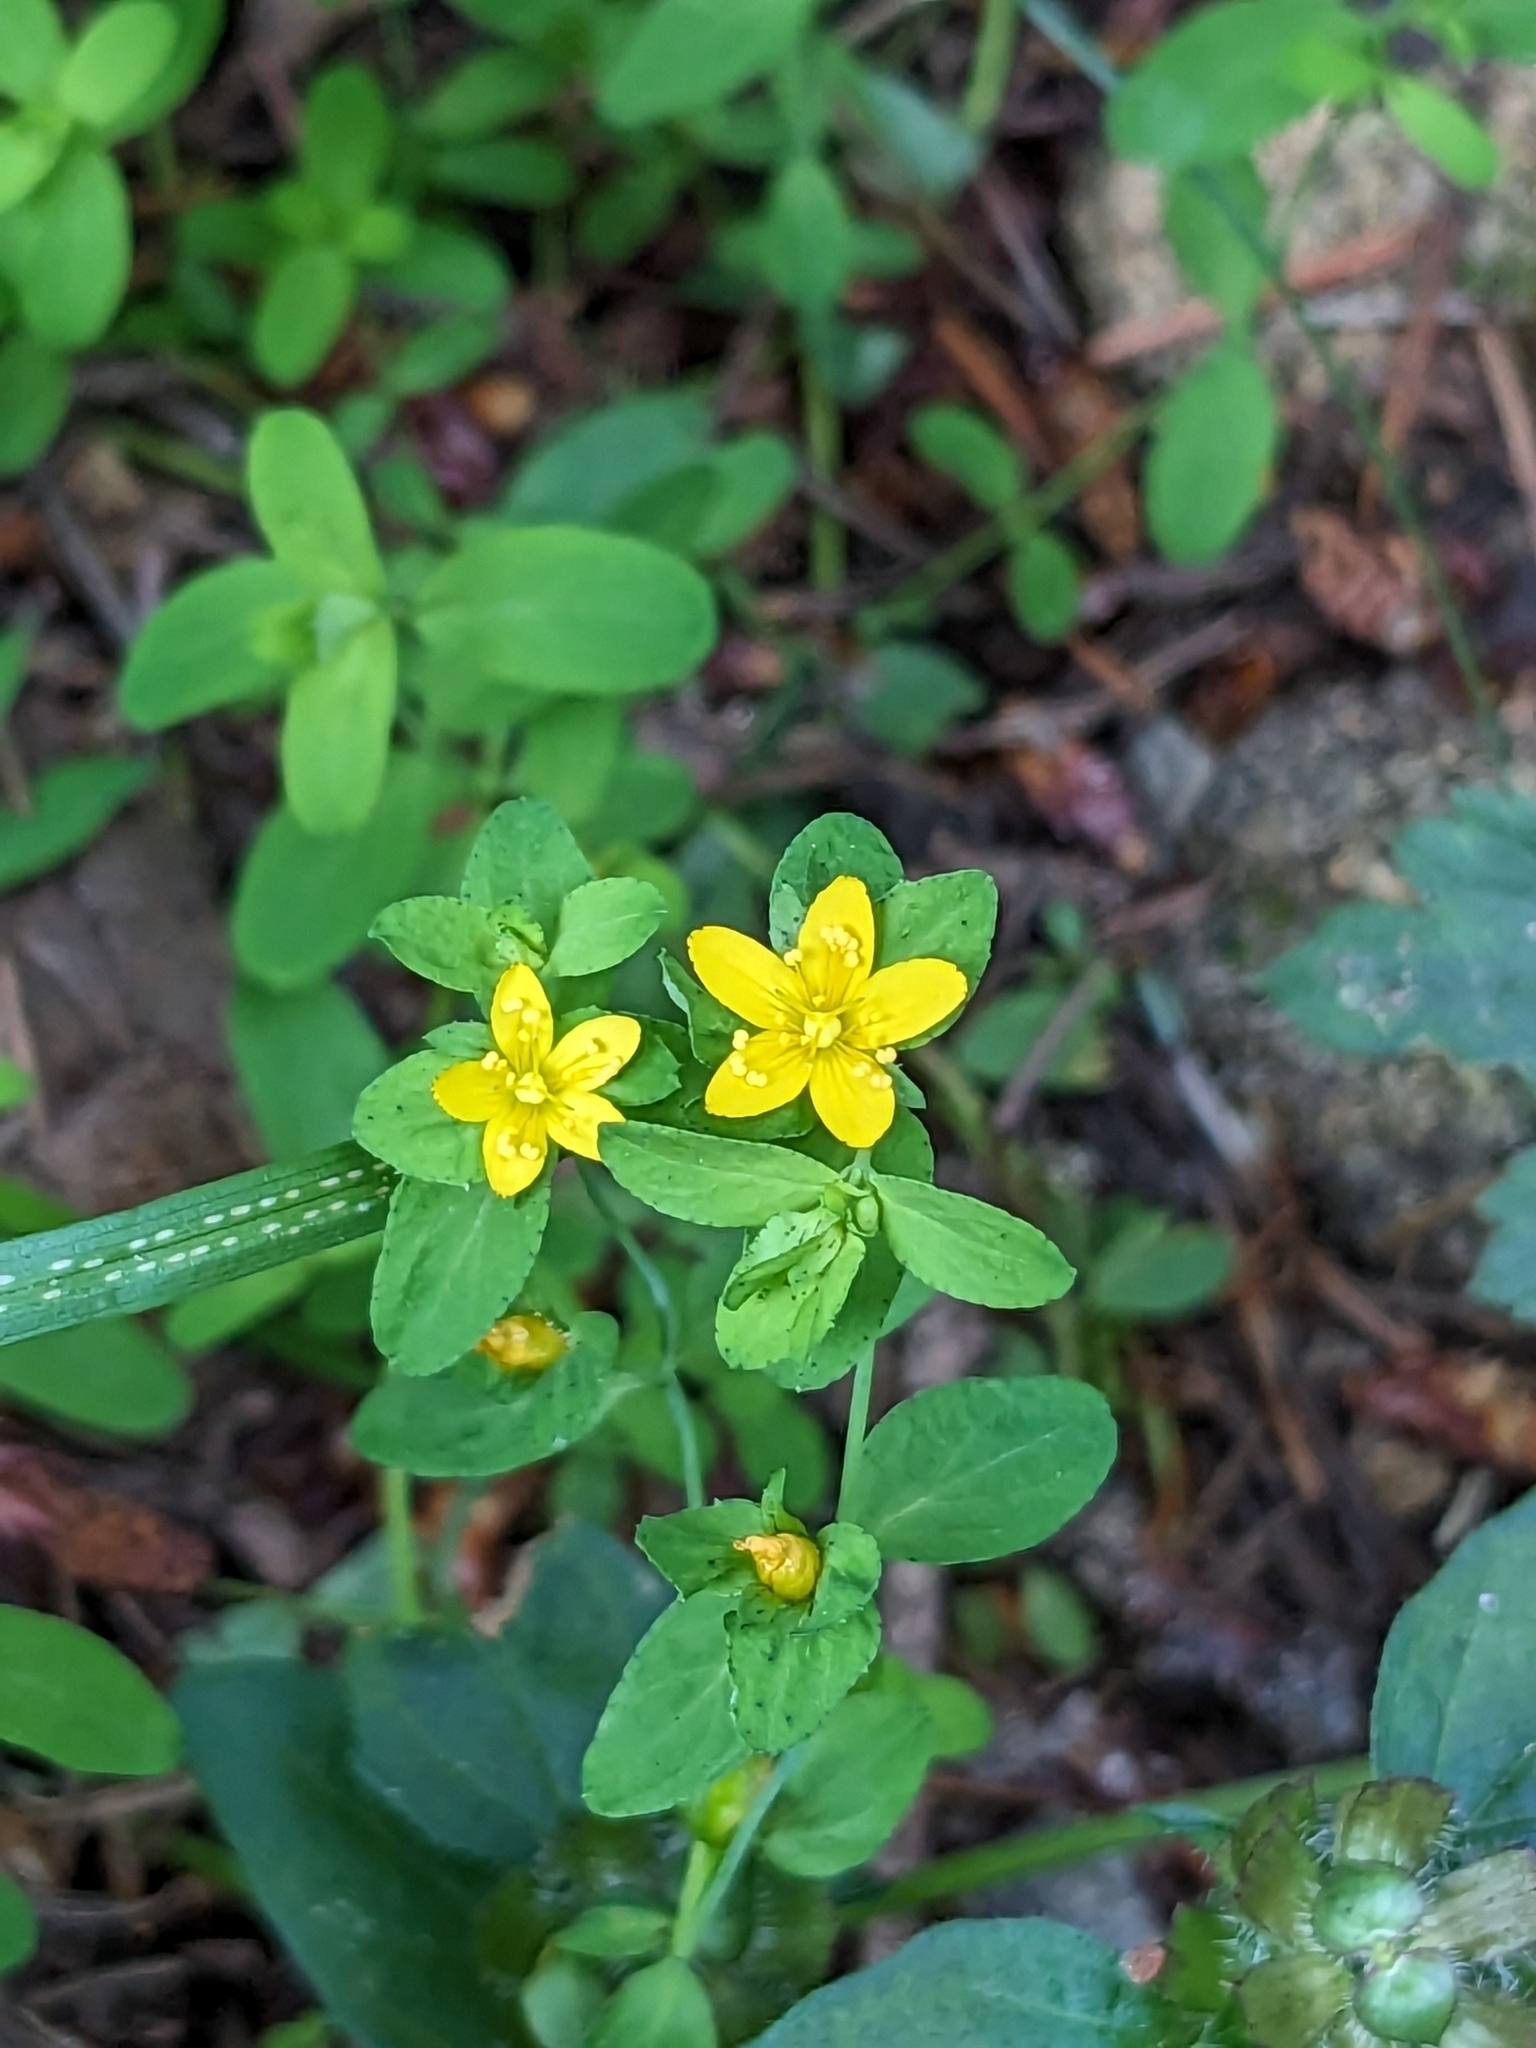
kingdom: Plantae
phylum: Tracheophyta
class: Magnoliopsida
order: Malpighiales
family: Hypericaceae
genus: Hypericum
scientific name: Hypericum humifusum
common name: Trailing st. john's-wort
